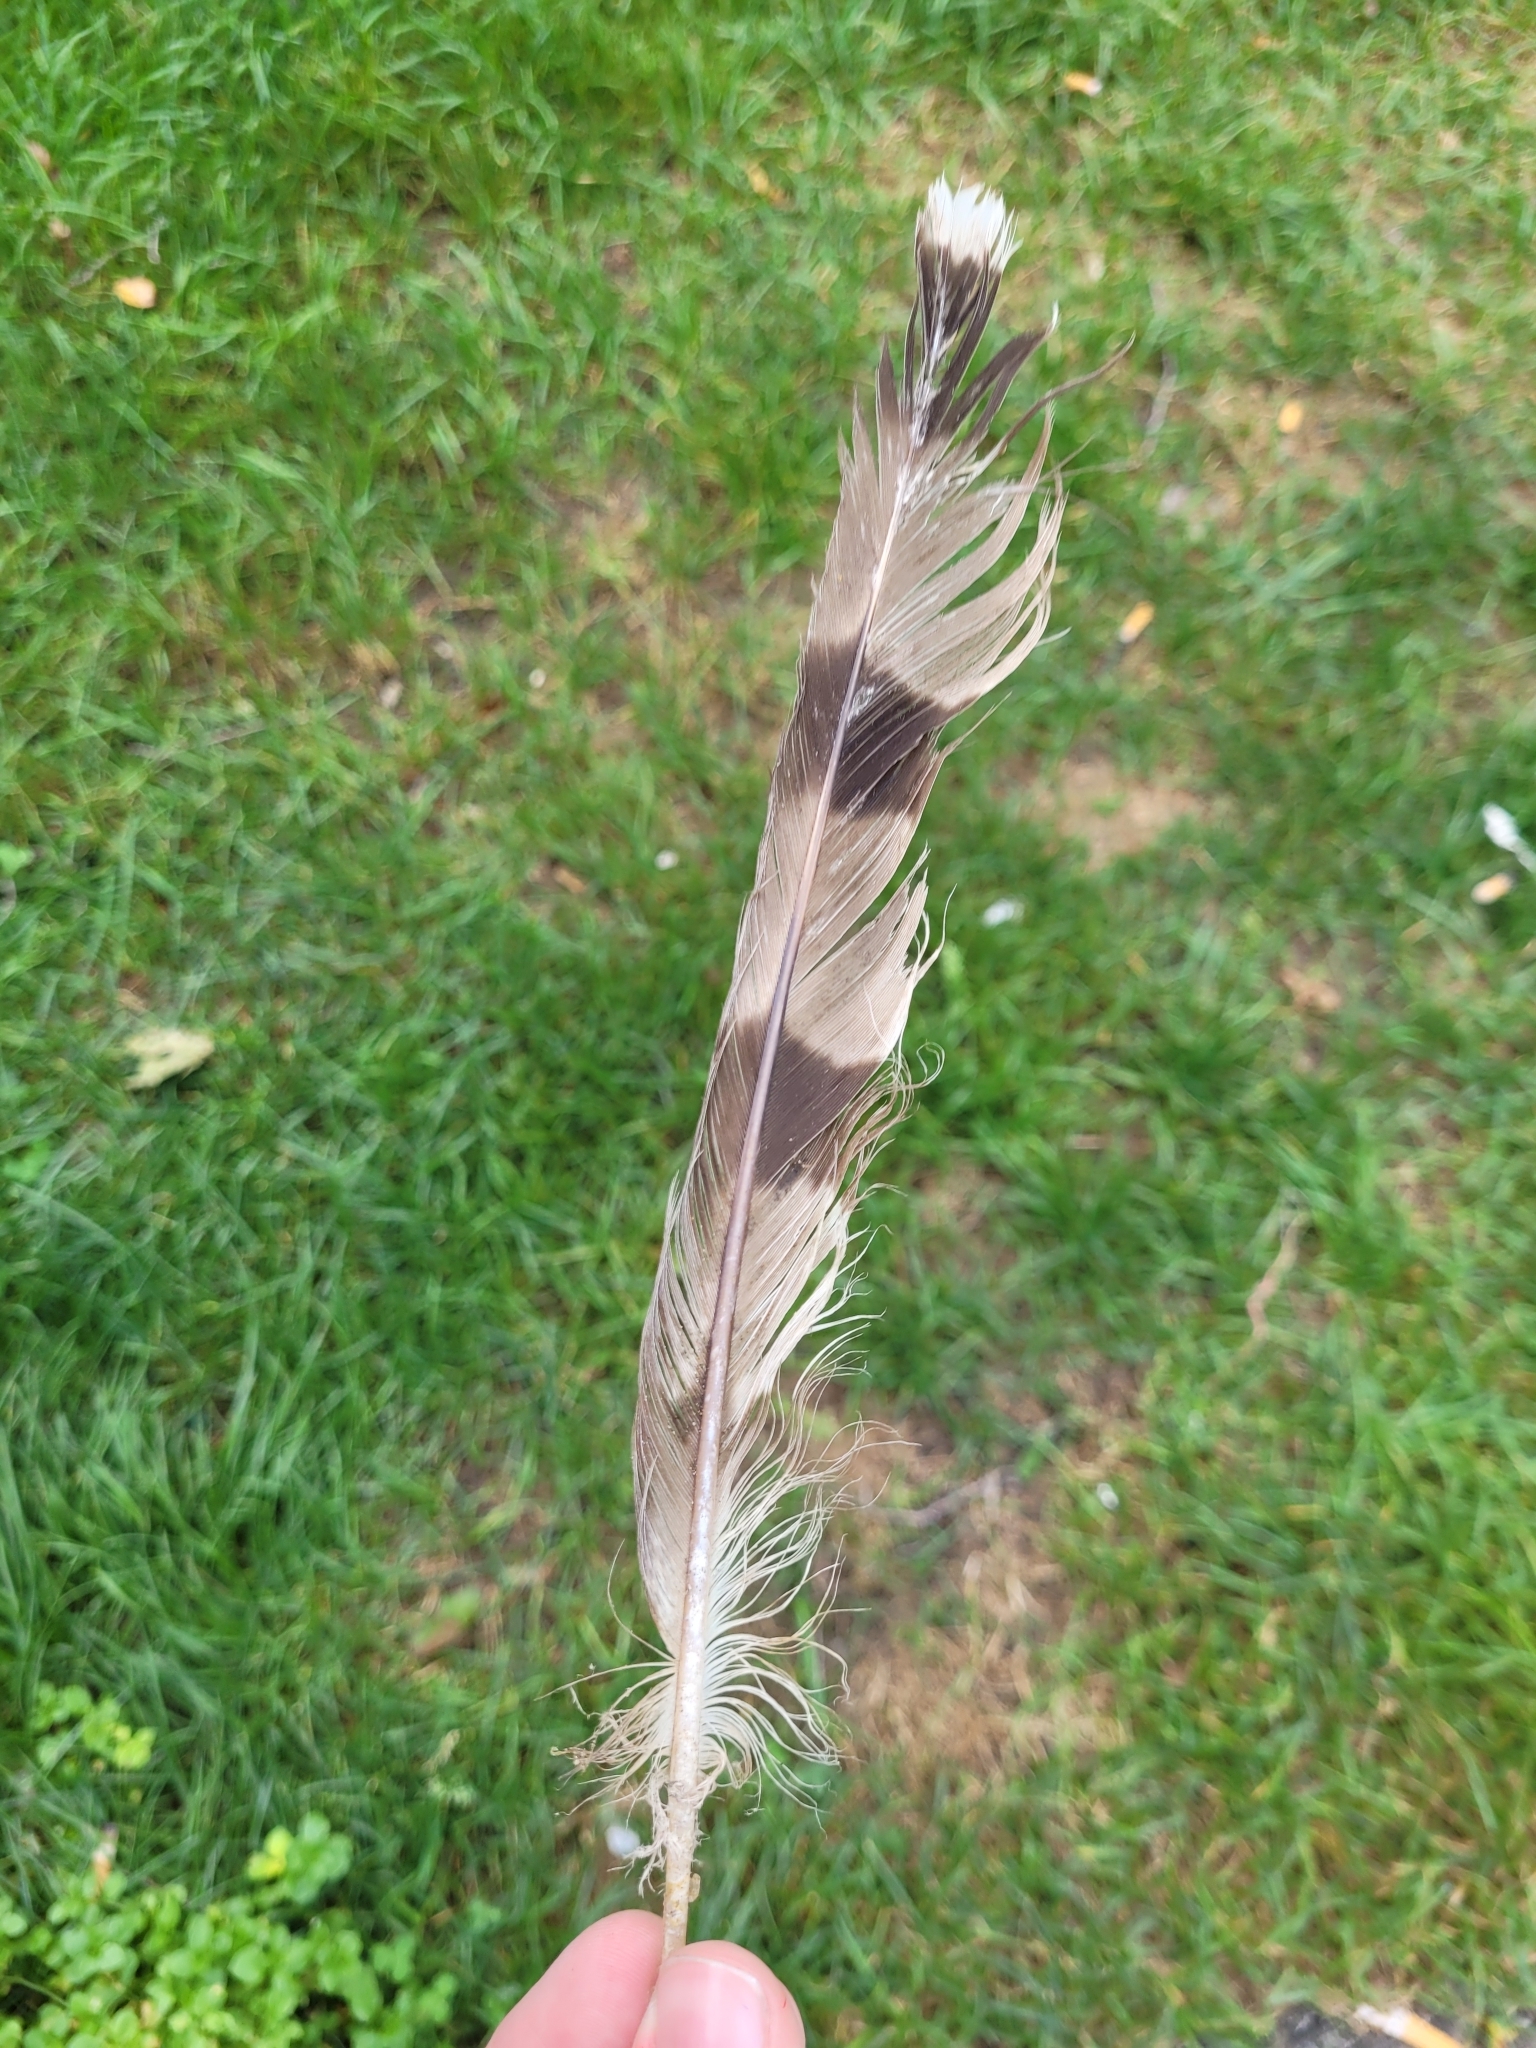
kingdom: Animalia
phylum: Chordata
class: Aves
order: Accipitriformes
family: Accipitridae
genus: Accipiter
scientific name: Accipiter cooperii
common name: Cooper's hawk
